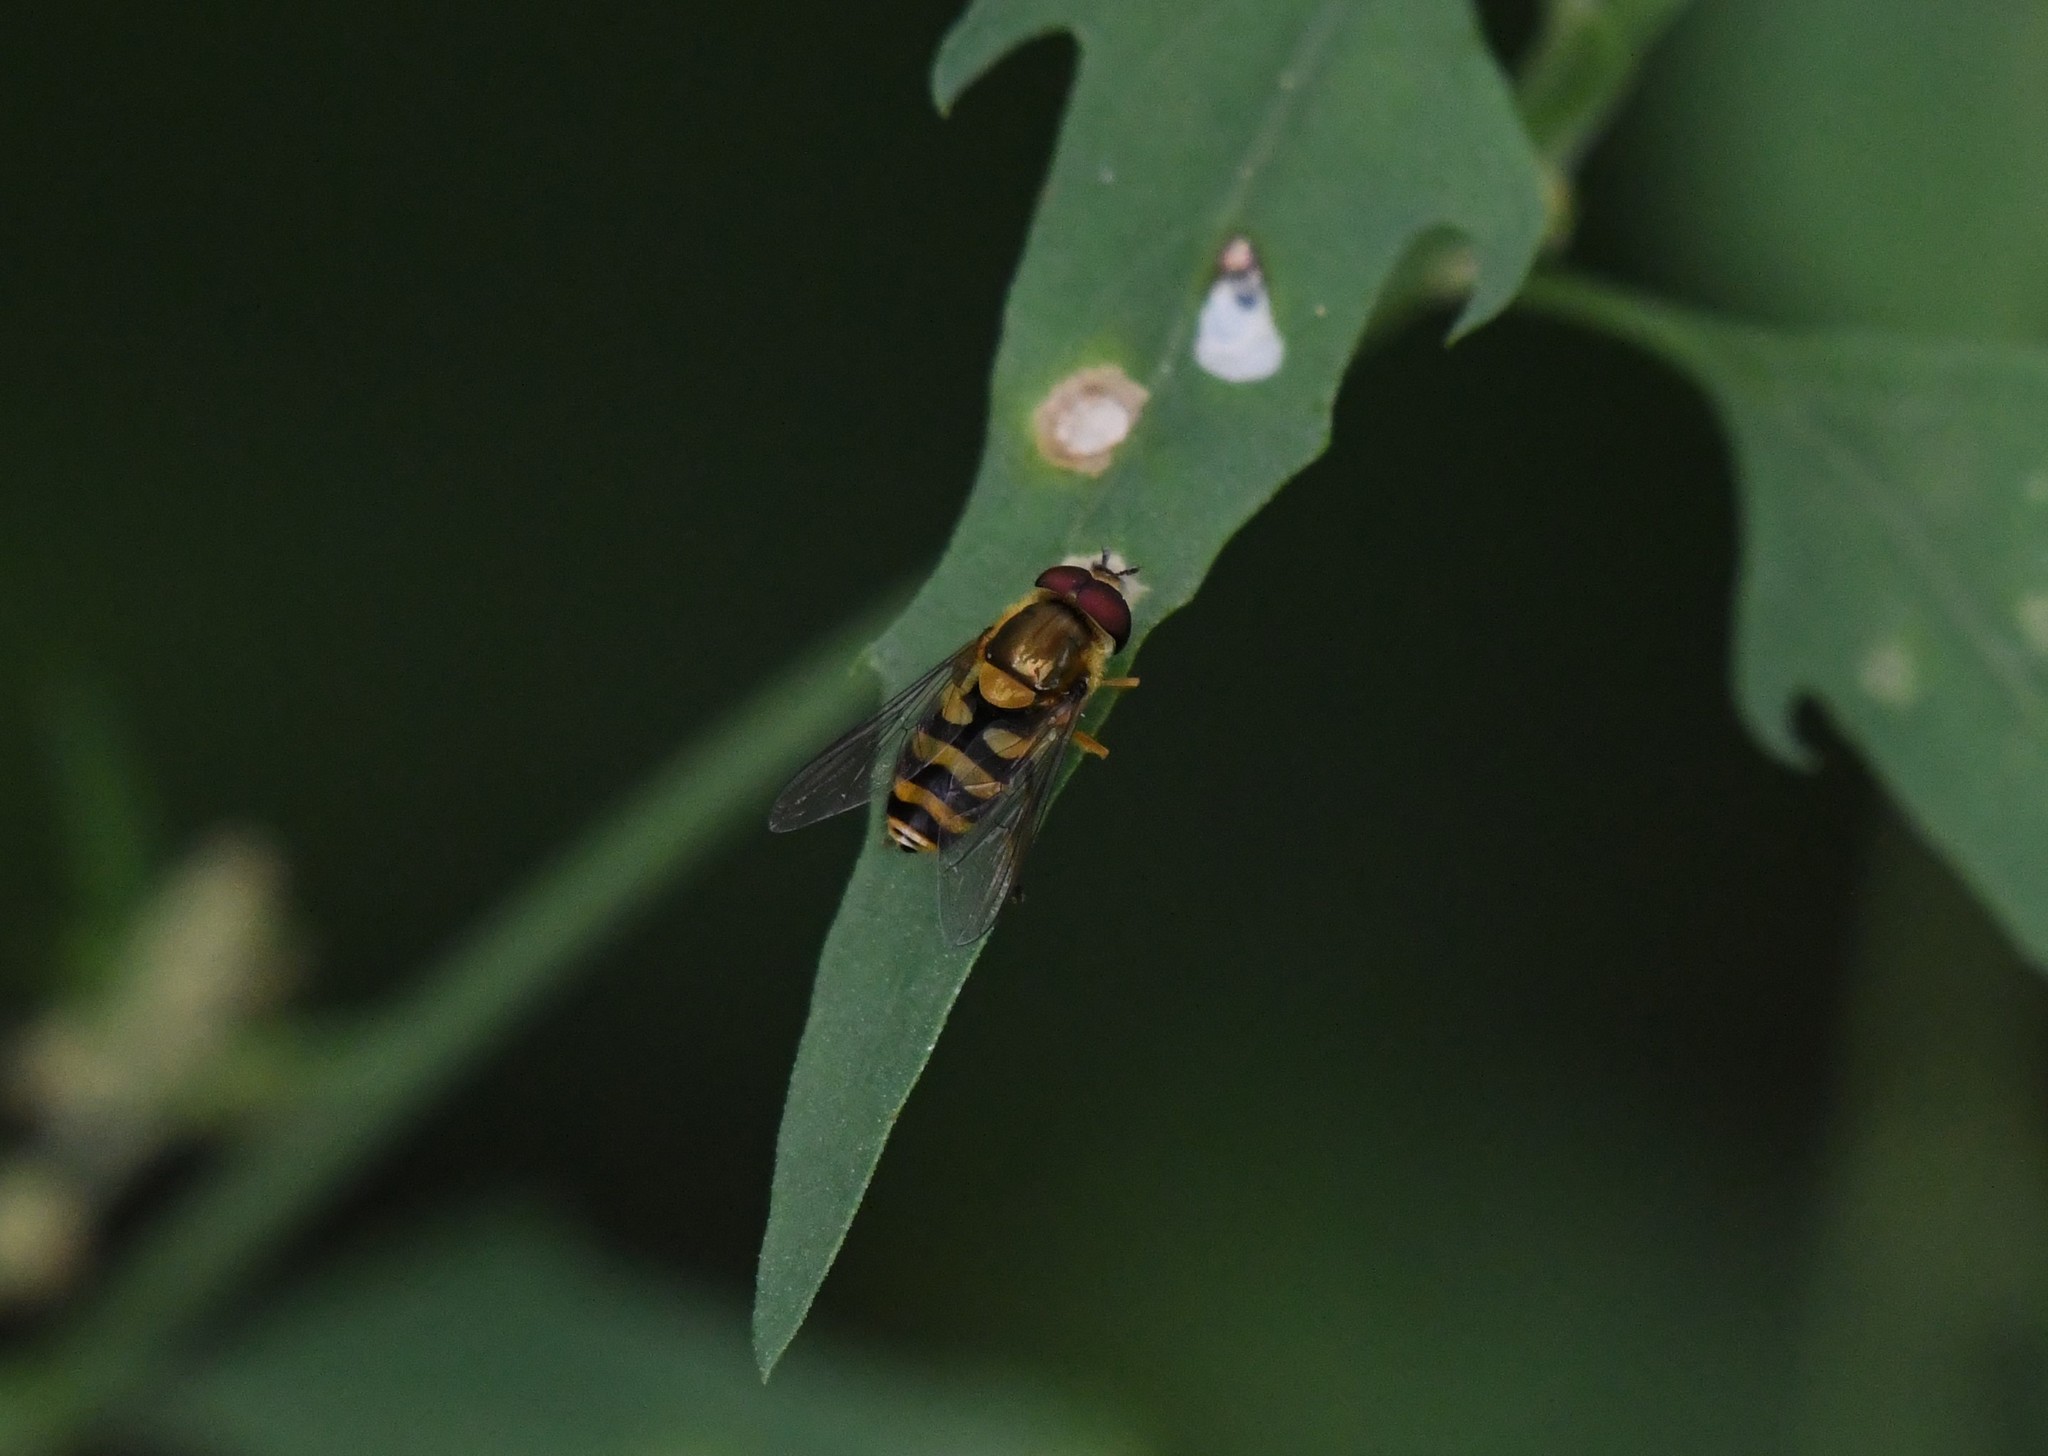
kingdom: Animalia
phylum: Arthropoda
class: Insecta
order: Diptera
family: Syrphidae
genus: Syrphus
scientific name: Syrphus
